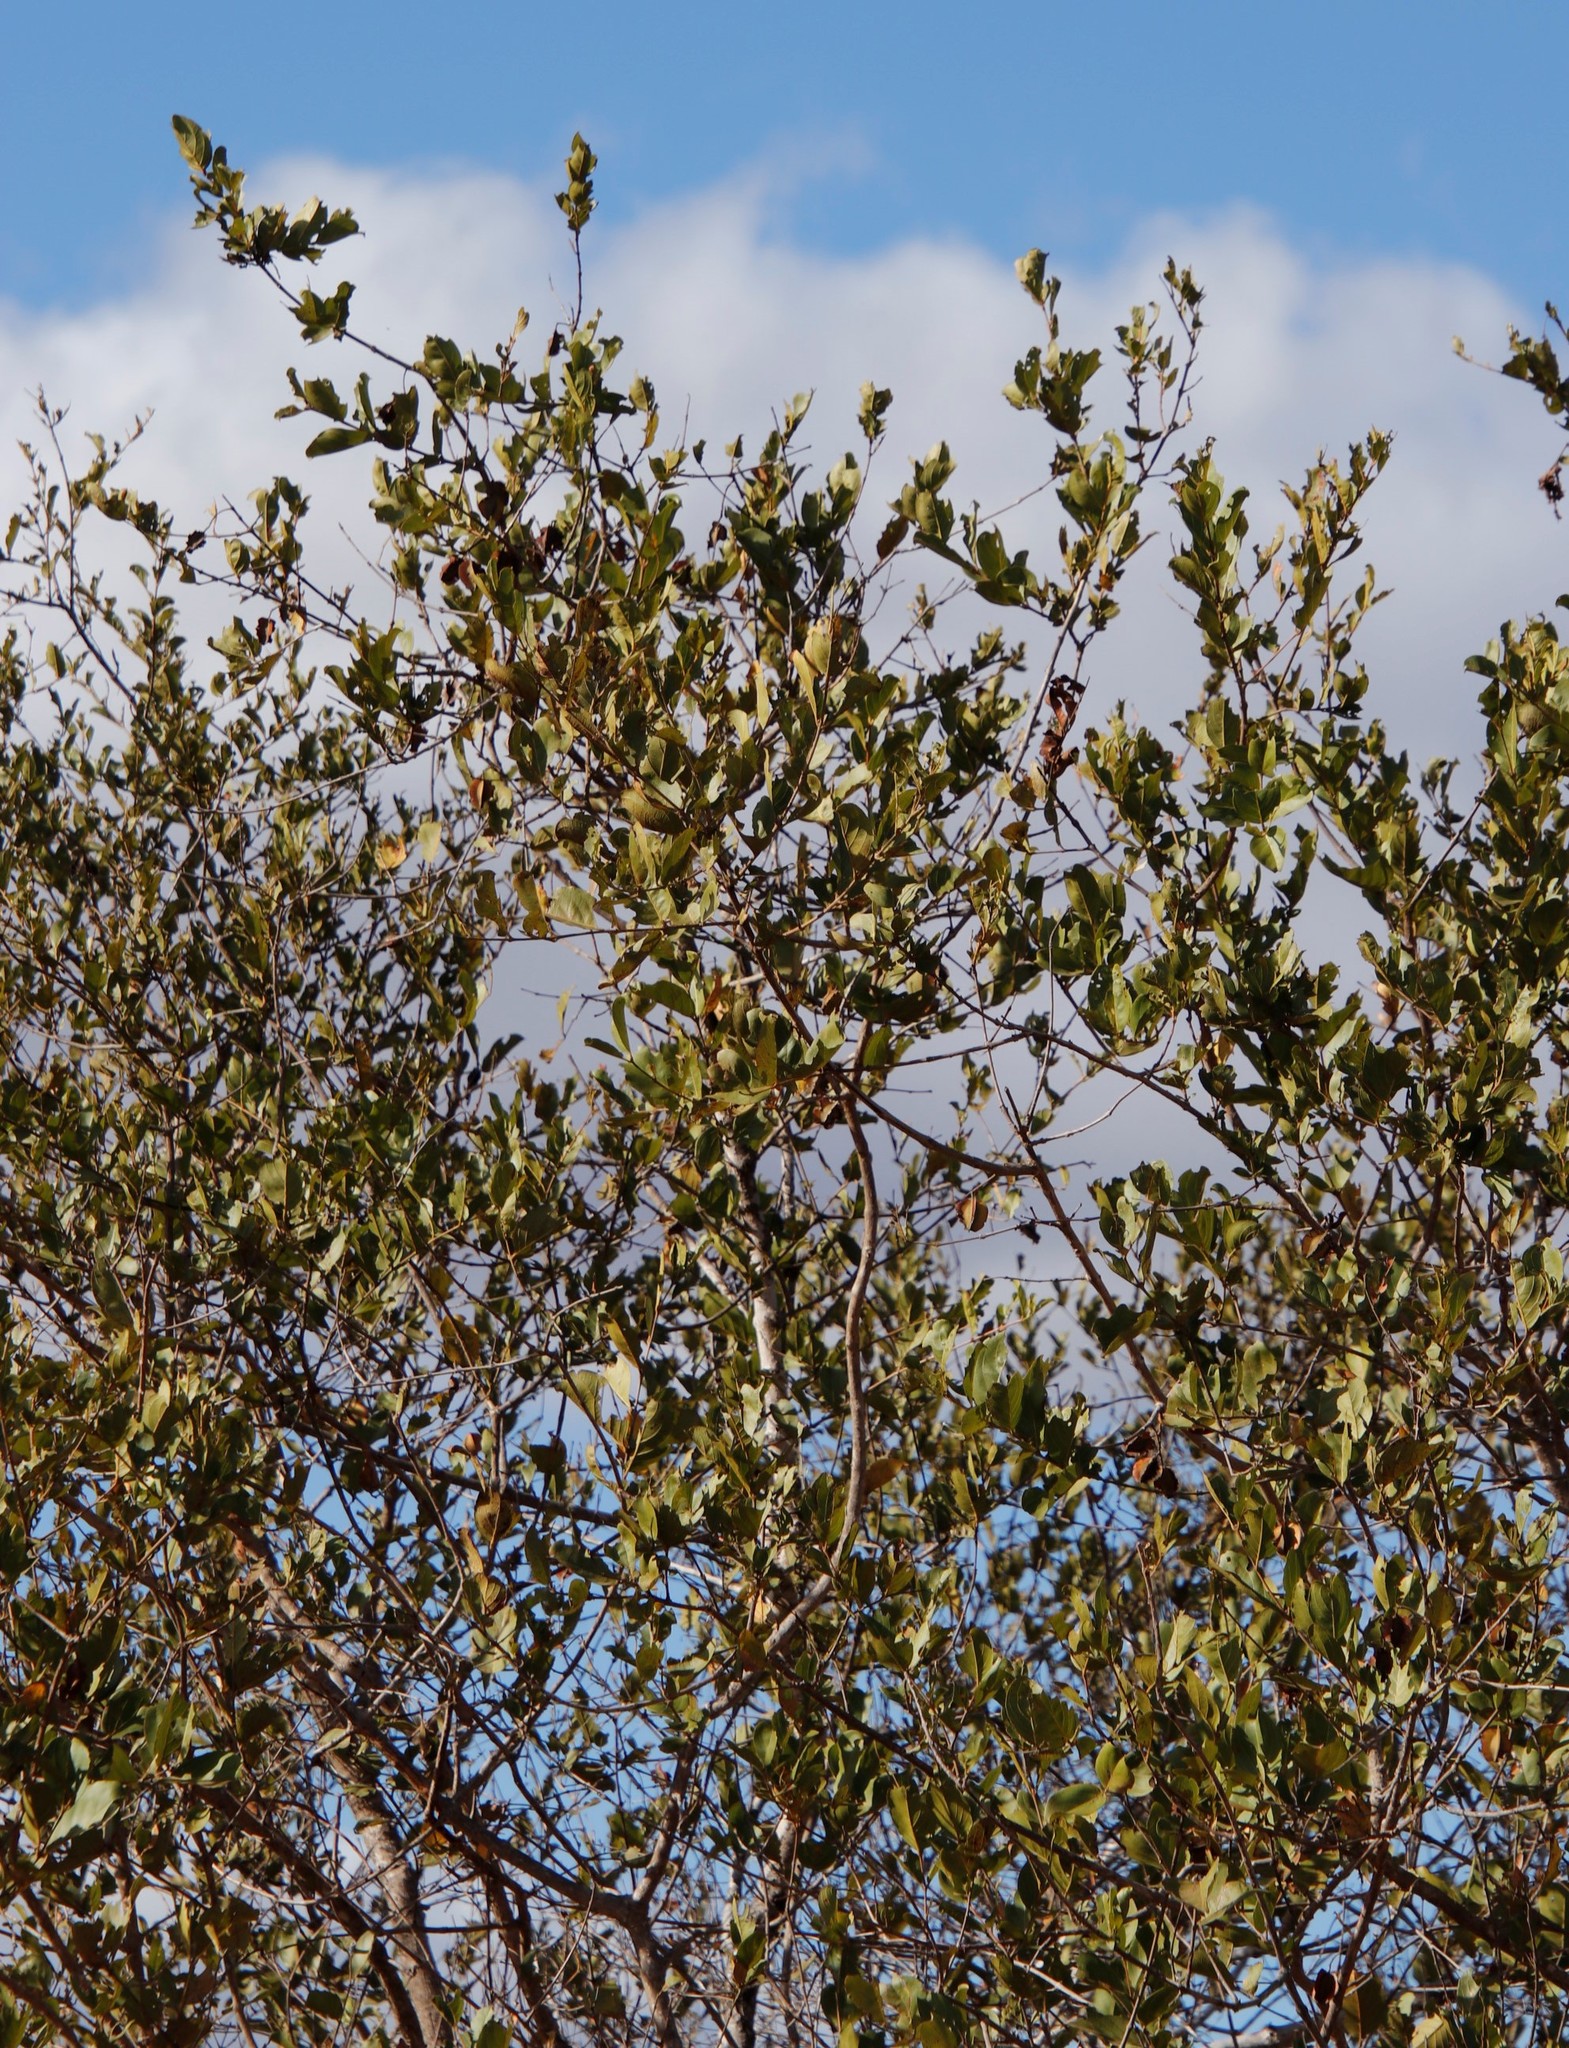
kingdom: Plantae
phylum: Tracheophyta
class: Magnoliopsida
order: Myrtales
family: Combretaceae
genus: Combretum
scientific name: Combretum apiculatum
